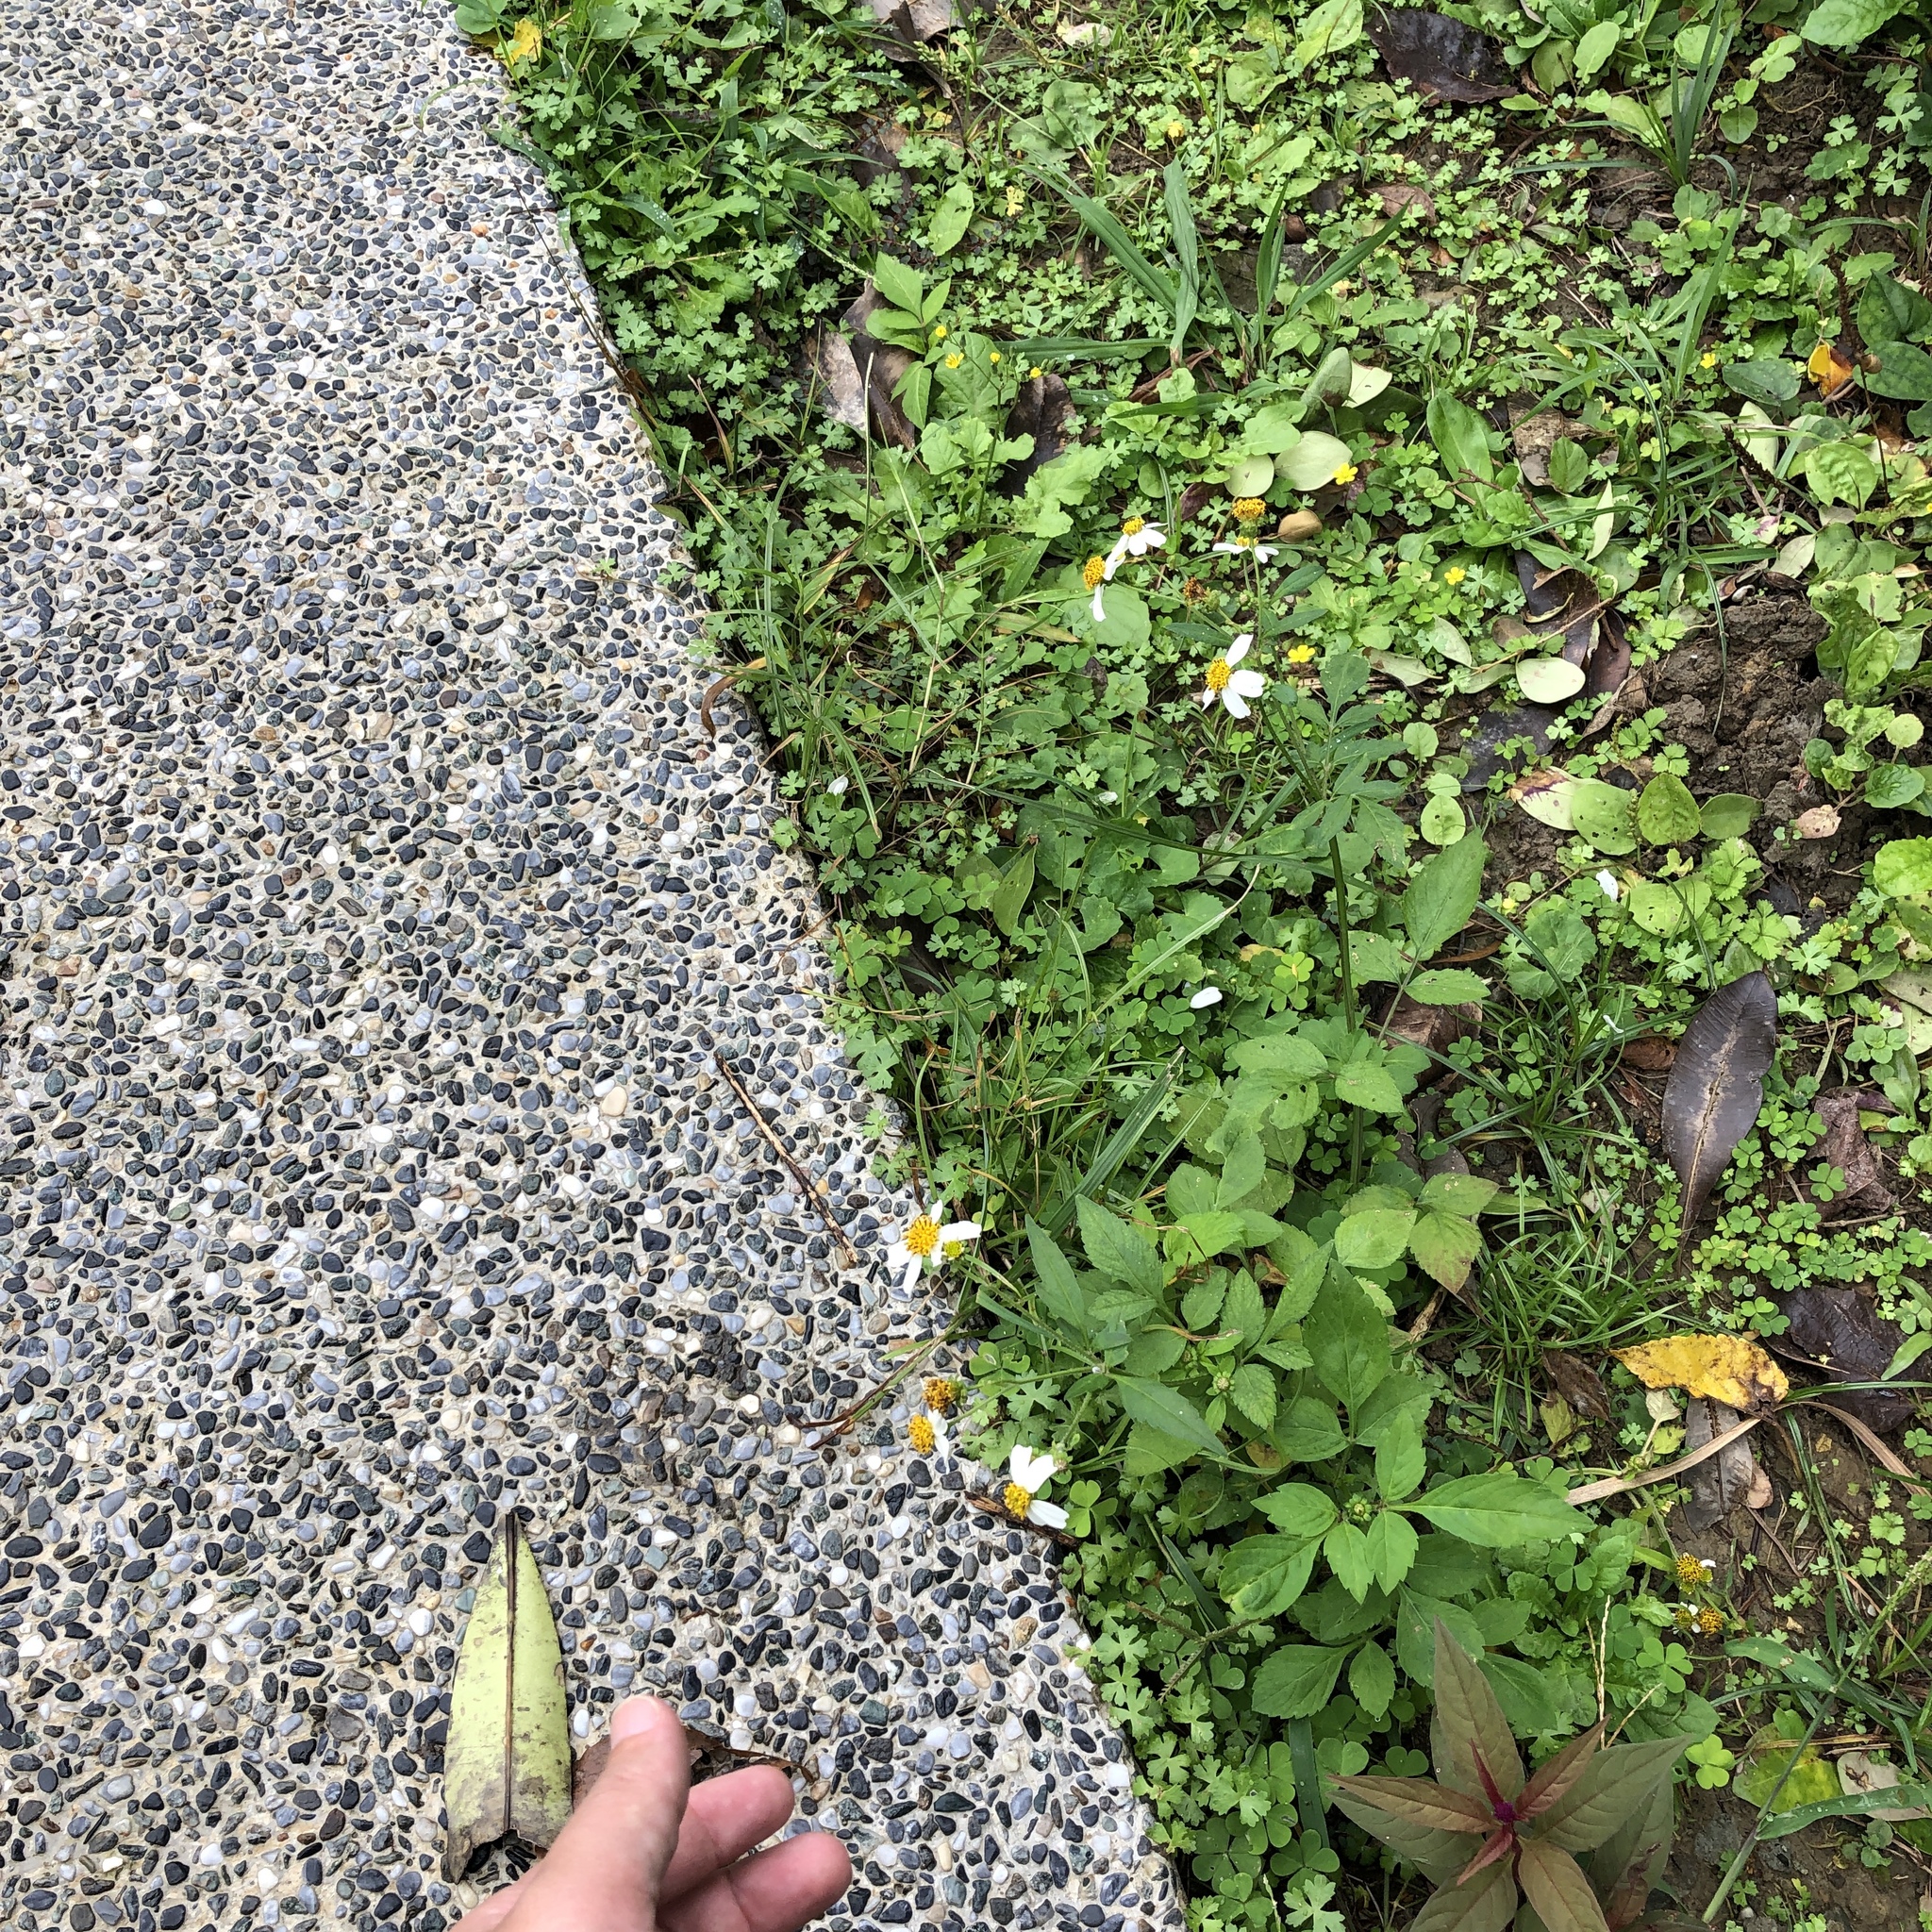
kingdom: Plantae
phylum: Tracheophyta
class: Magnoliopsida
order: Asterales
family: Asteraceae
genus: Bidens
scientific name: Bidens alba
